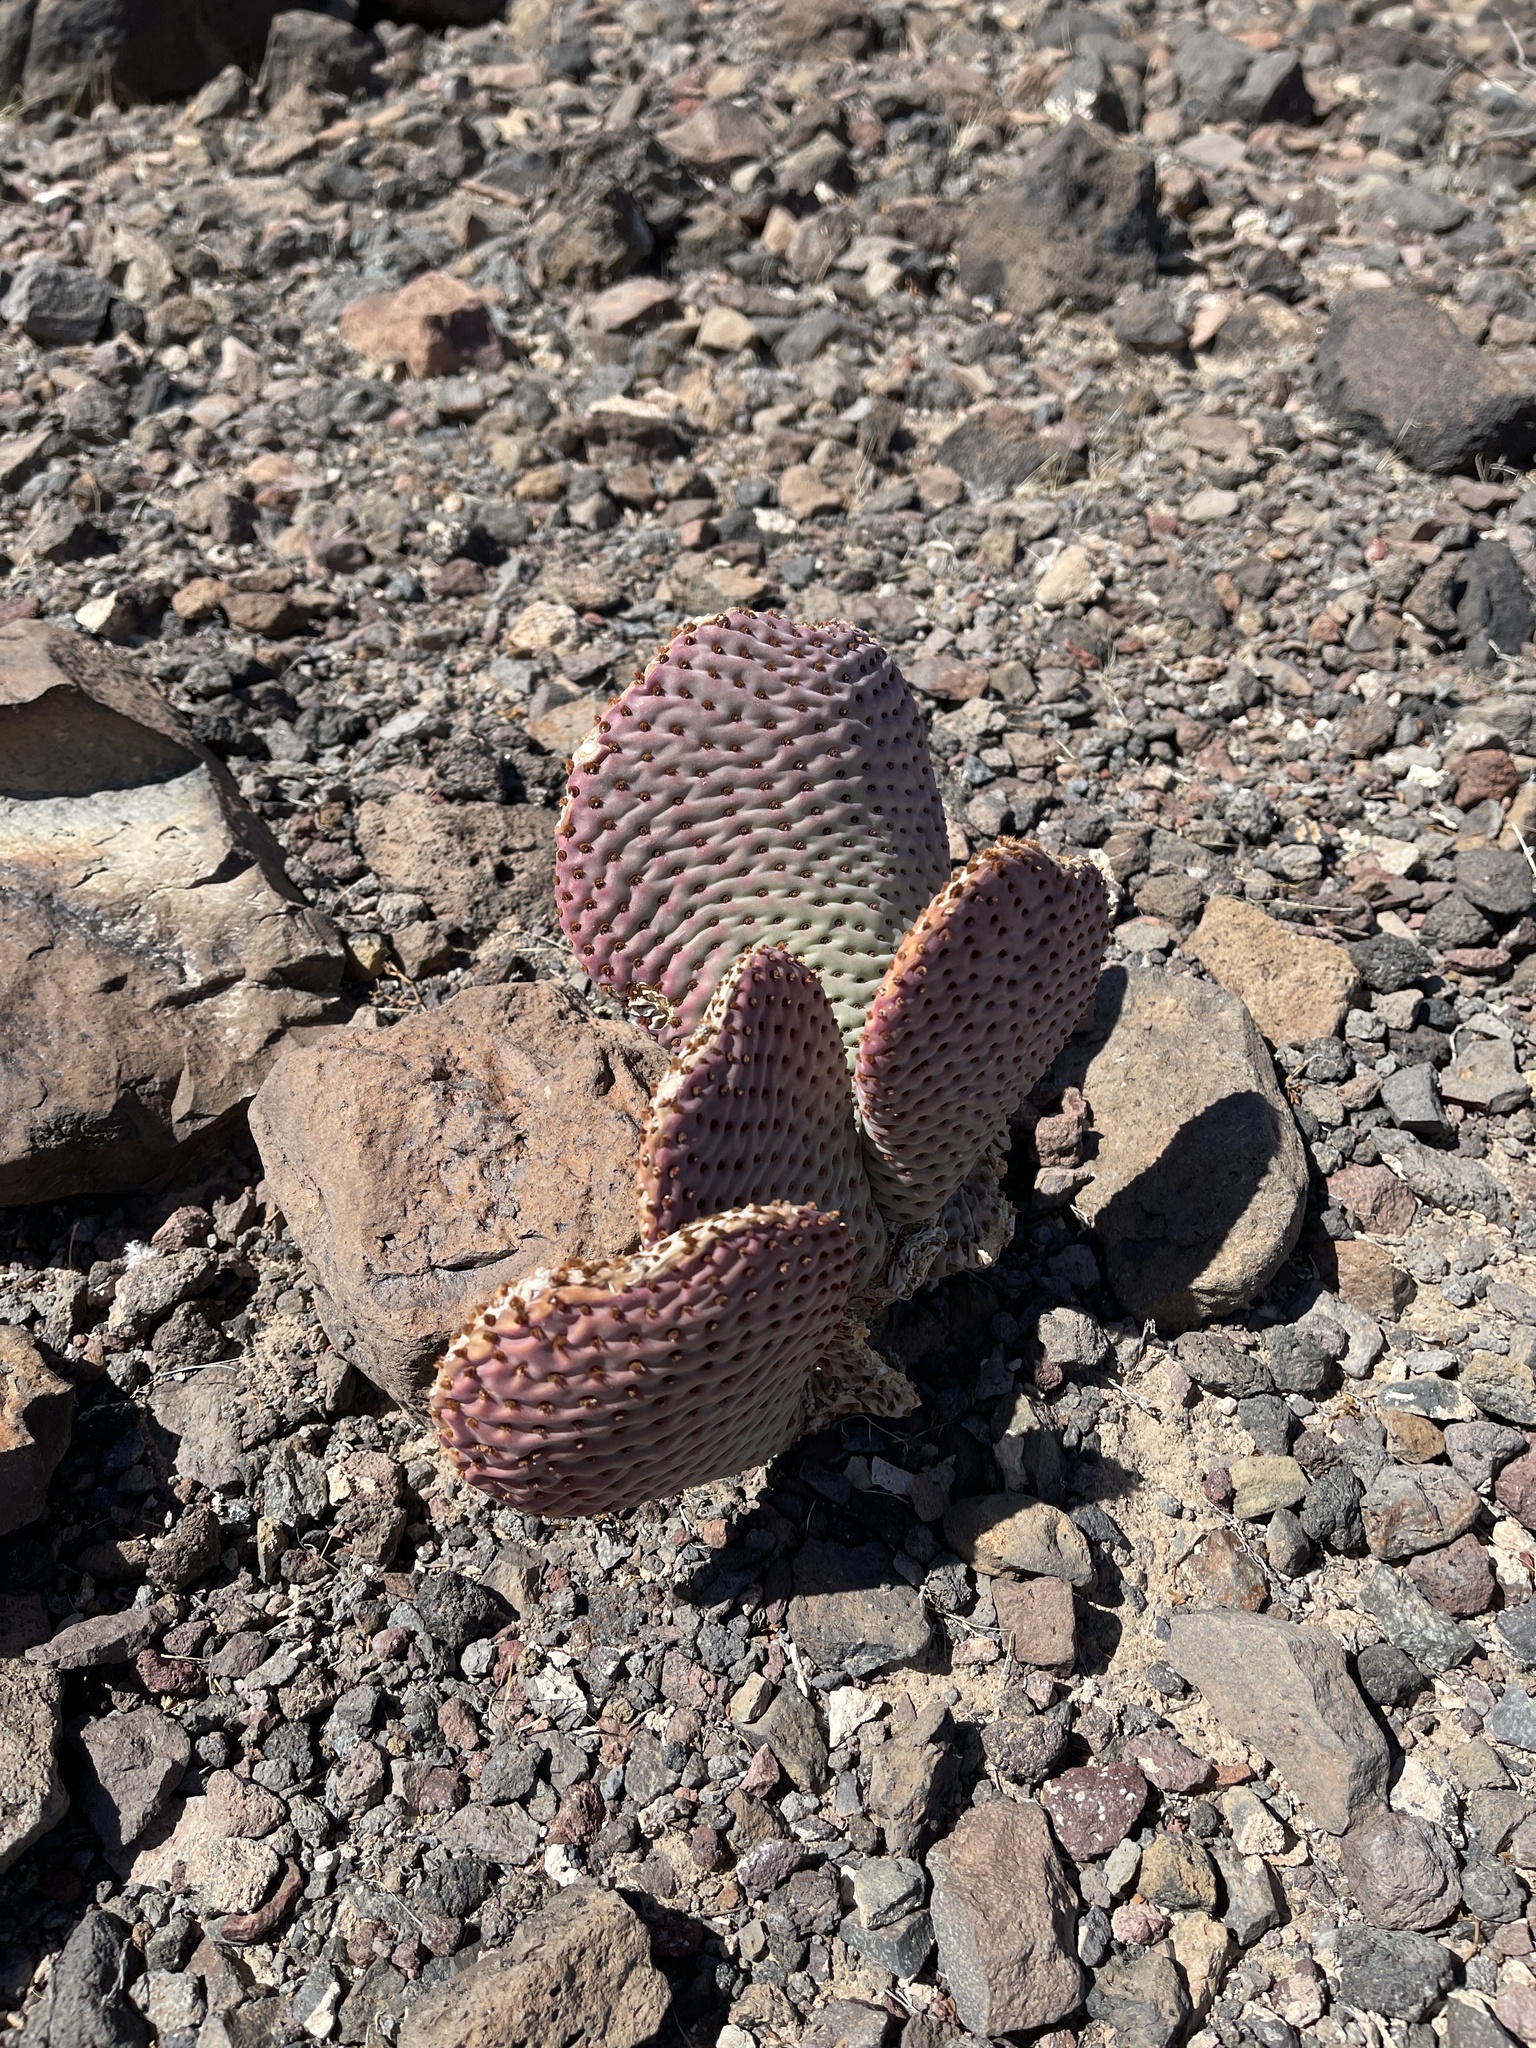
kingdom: Plantae
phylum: Tracheophyta
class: Magnoliopsida
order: Caryophyllales
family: Cactaceae
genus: Opuntia
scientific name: Opuntia basilaris
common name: Beavertail prickly-pear
